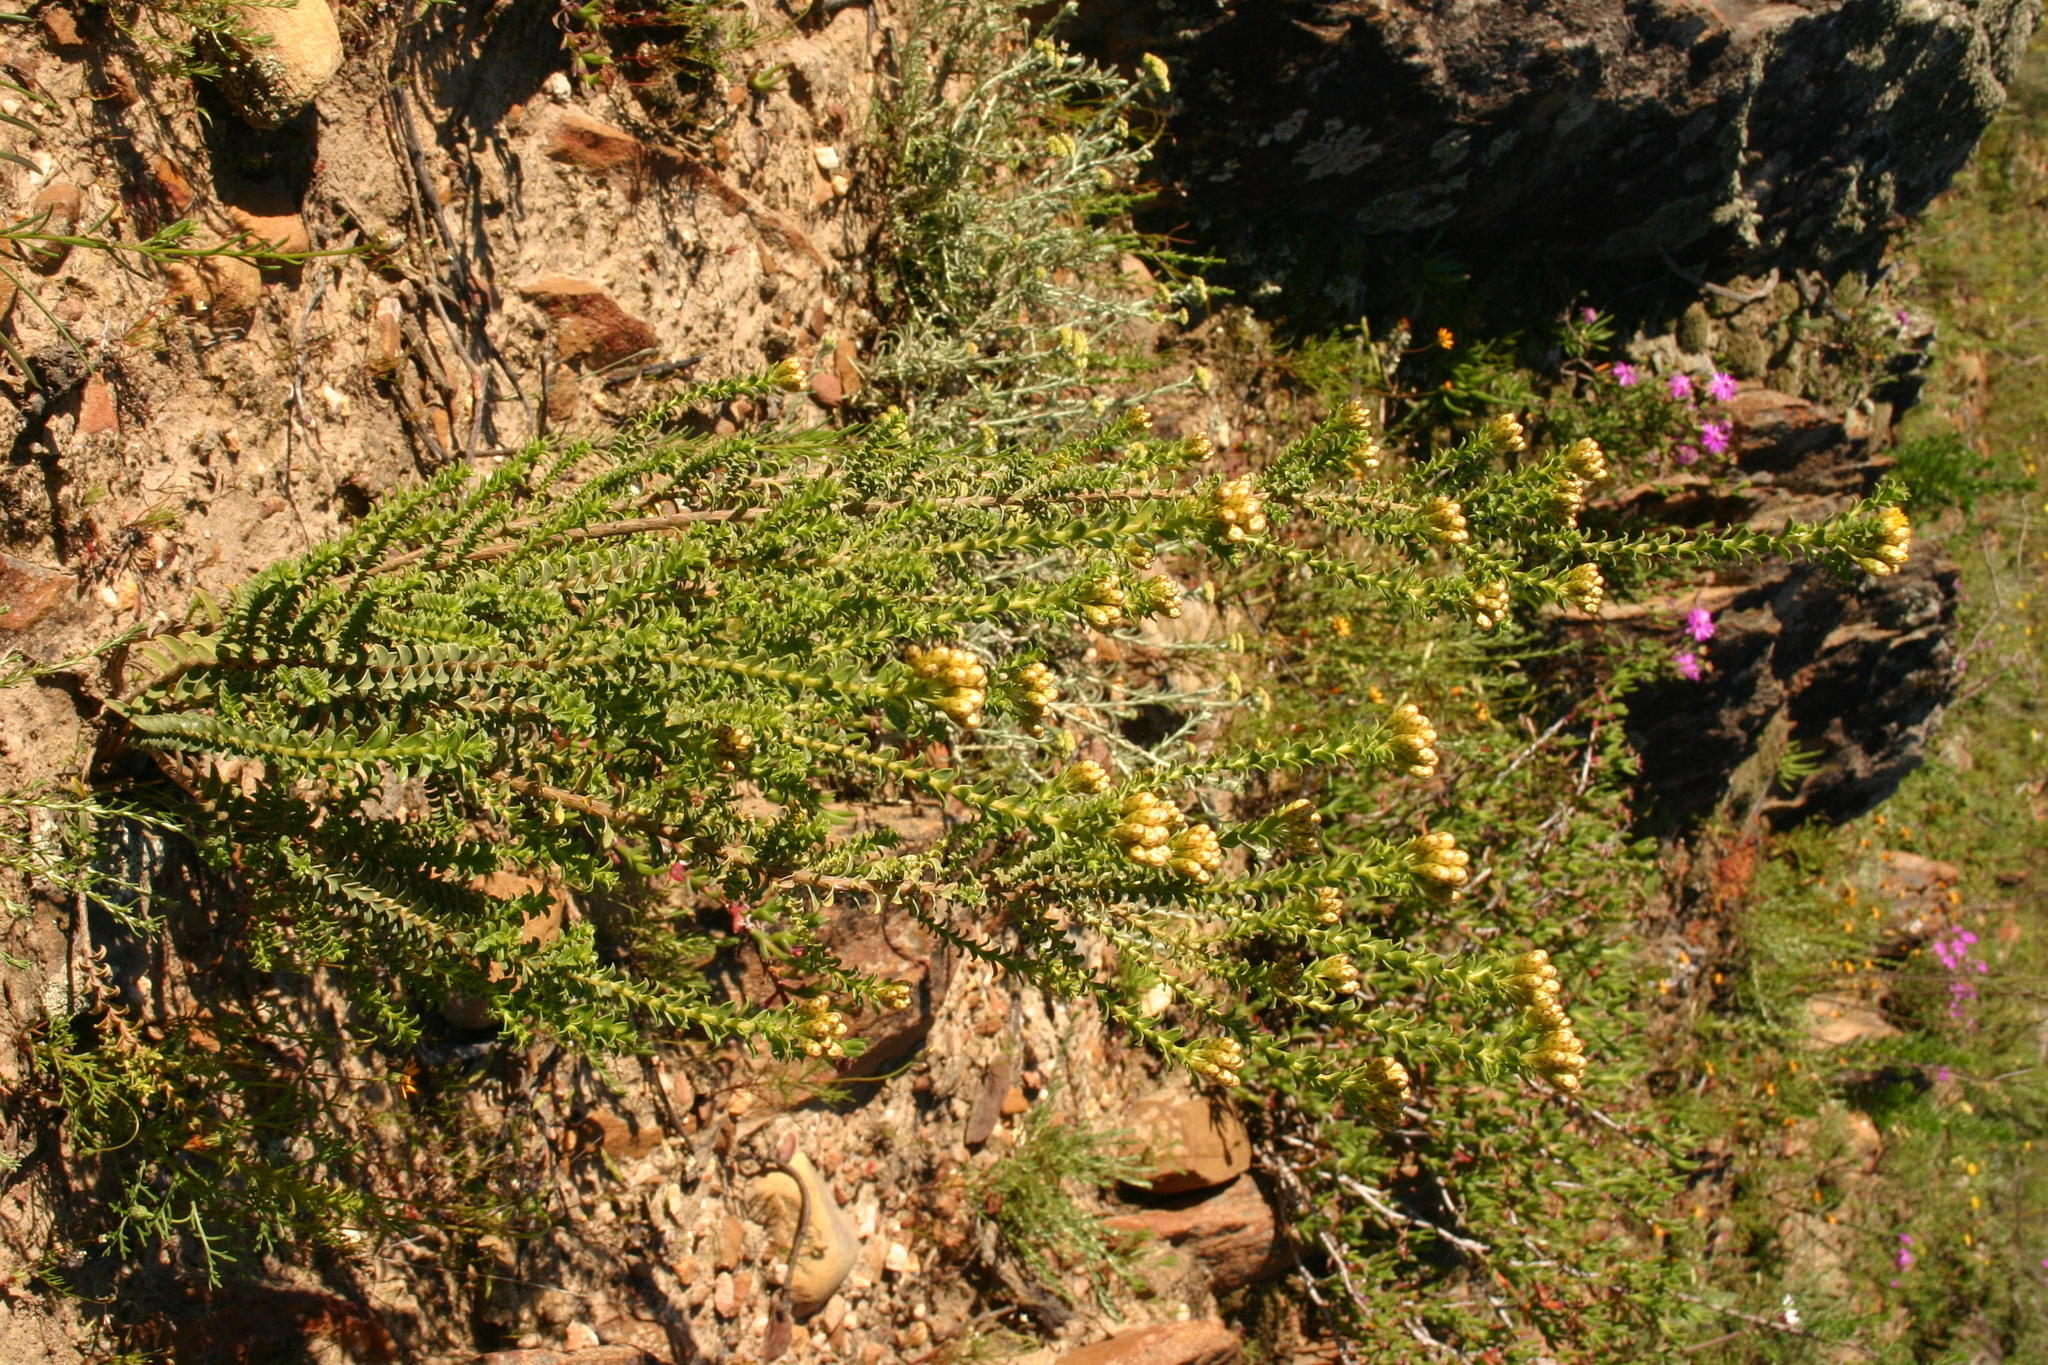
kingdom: Plantae
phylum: Tracheophyta
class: Magnoliopsida
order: Asterales
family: Asteraceae
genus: Oedera
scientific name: Oedera squarrosa
